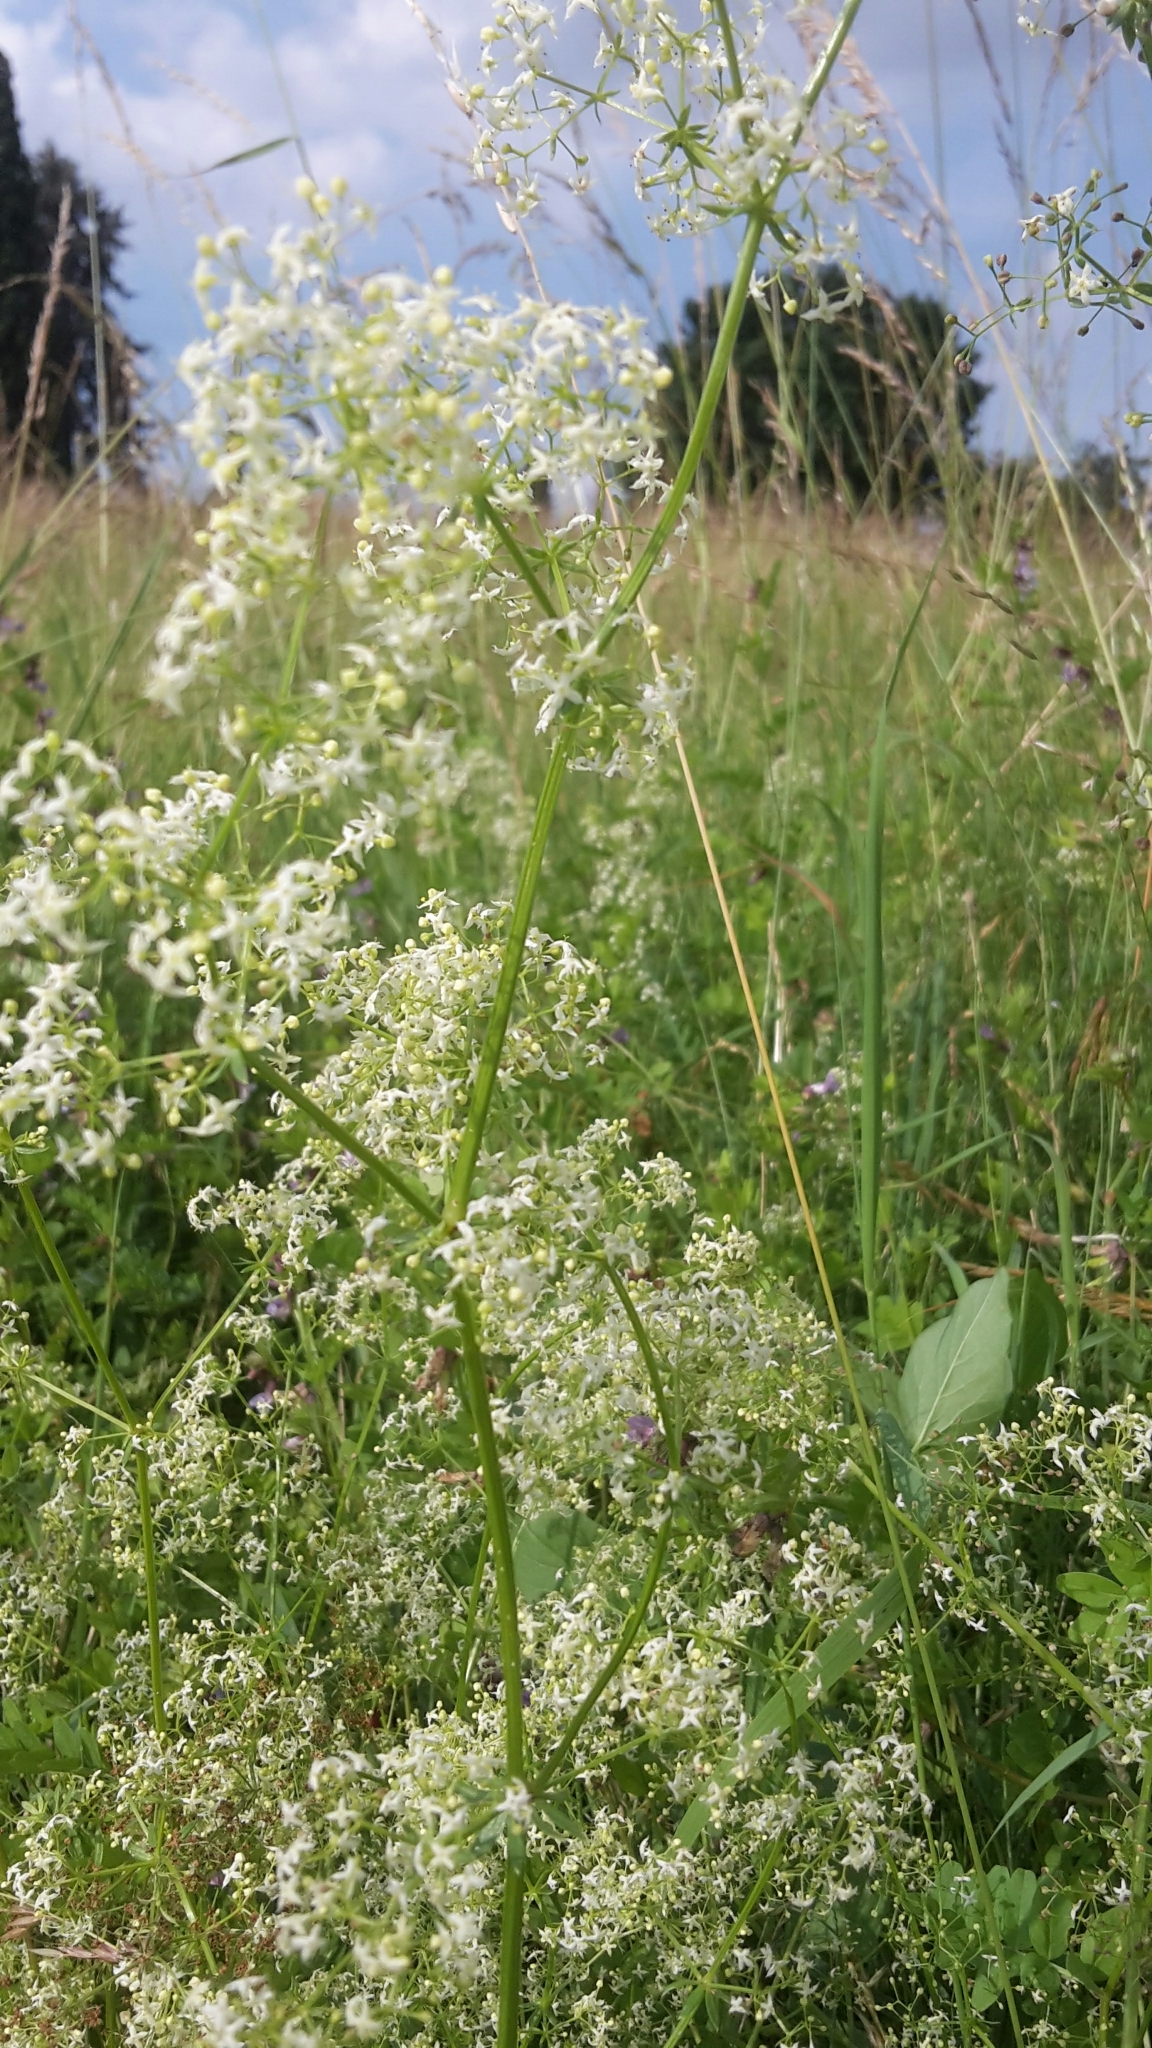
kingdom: Plantae
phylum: Tracheophyta
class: Magnoliopsida
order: Gentianales
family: Rubiaceae
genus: Galium
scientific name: Galium album
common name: White bedstraw
